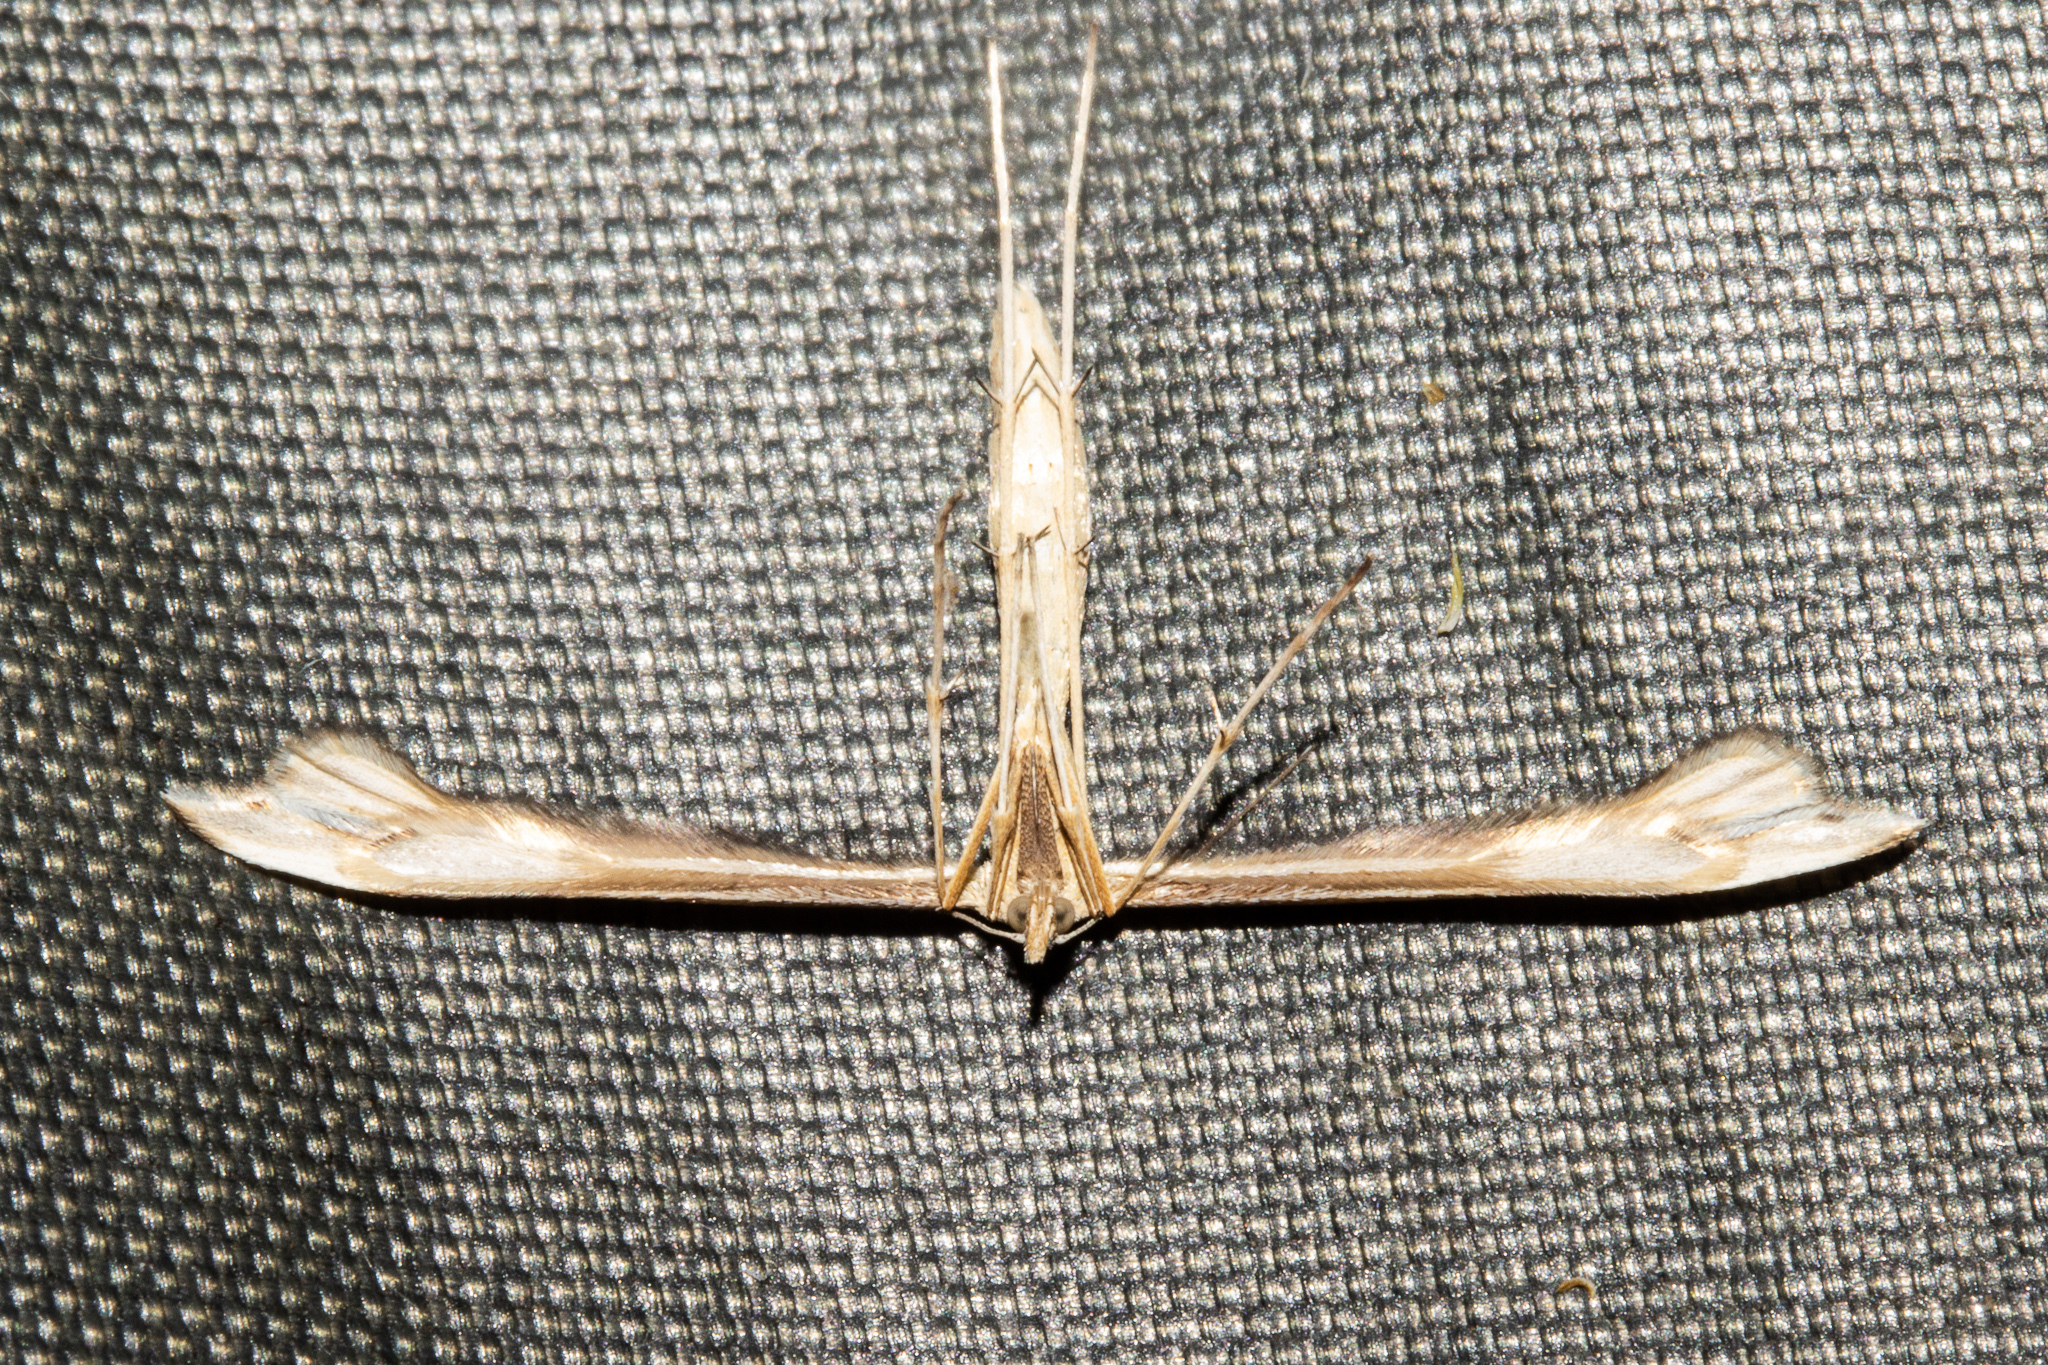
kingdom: Animalia
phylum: Arthropoda
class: Insecta
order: Lepidoptera
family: Pterophoridae
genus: Amblyptilia
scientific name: Amblyptilia epotis
